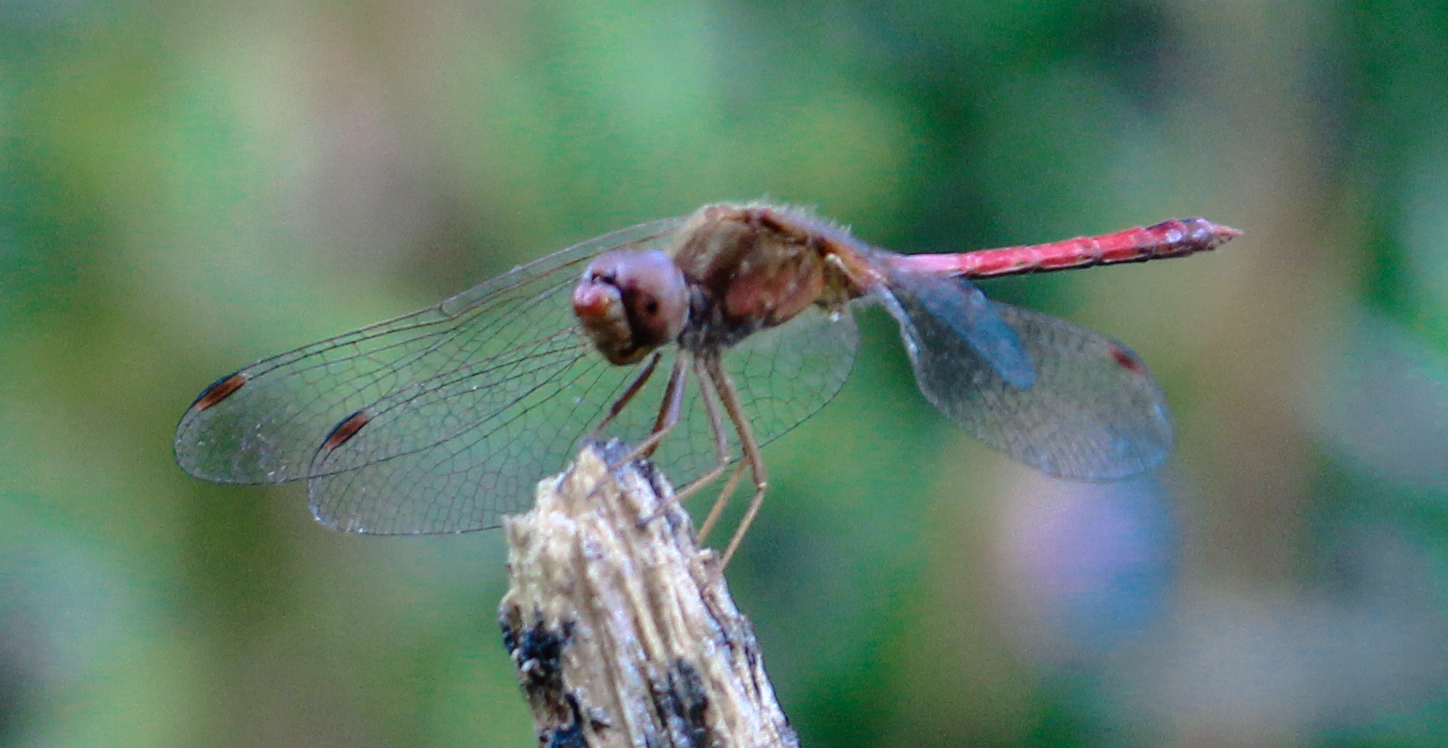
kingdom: Animalia
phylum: Arthropoda
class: Insecta
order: Odonata
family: Libellulidae
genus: Sympetrum
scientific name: Sympetrum vicinum
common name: Autumn meadowhawk
